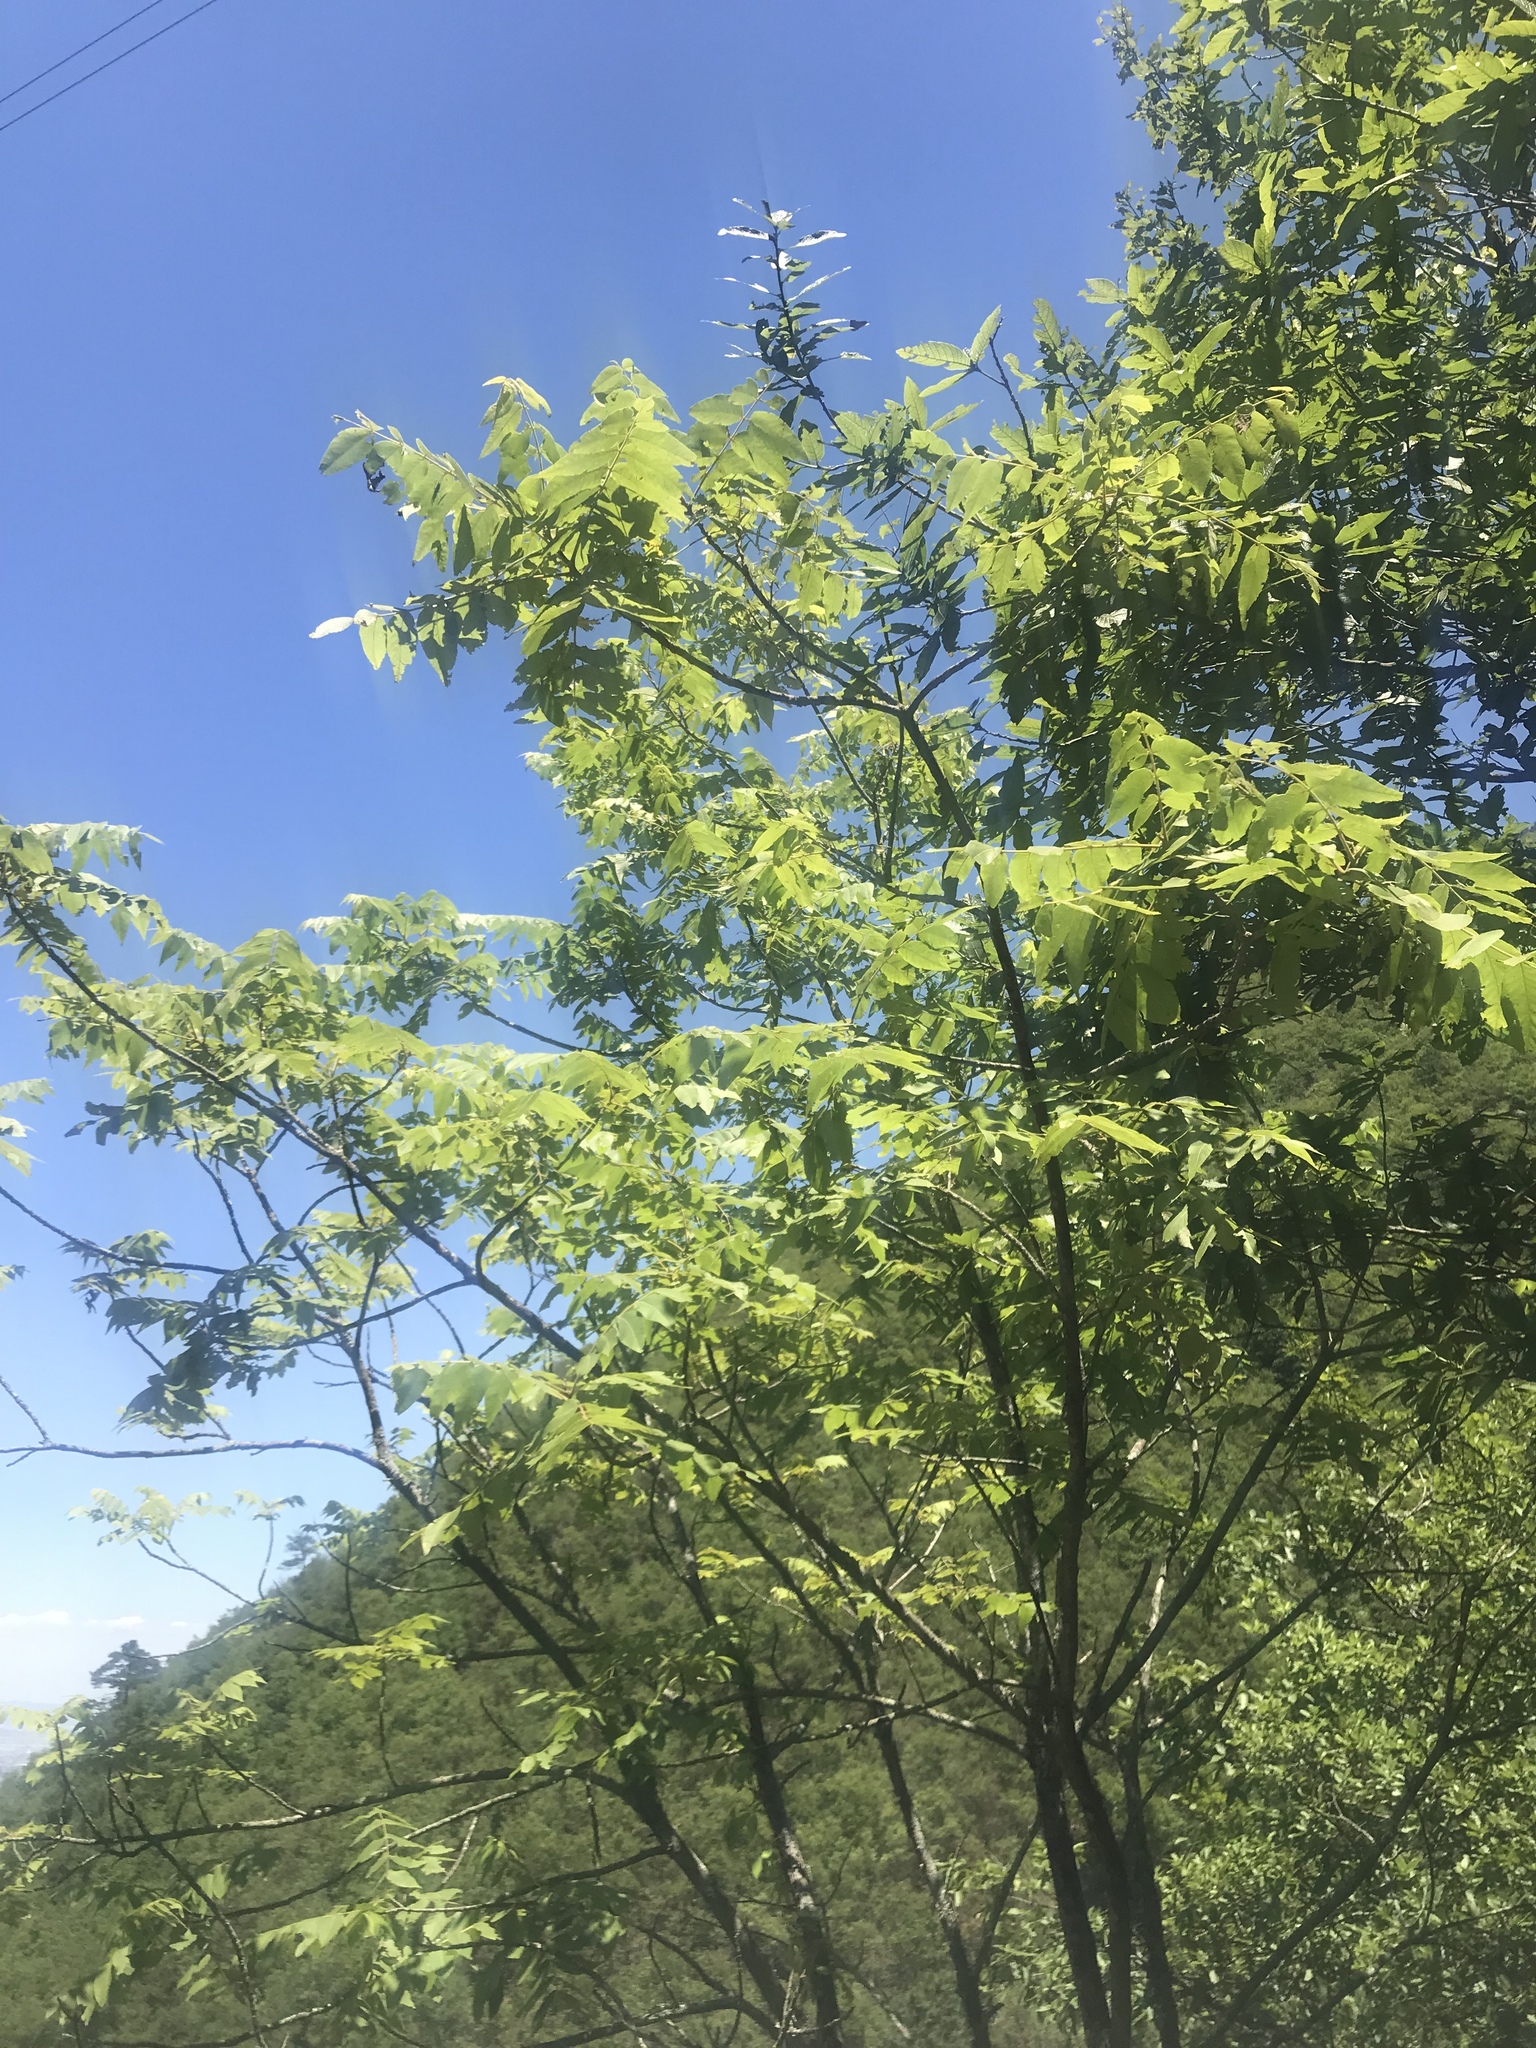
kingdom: Plantae
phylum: Tracheophyta
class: Magnoliopsida
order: Fagales
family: Juglandaceae
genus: Juglans
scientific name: Juglans mollis
